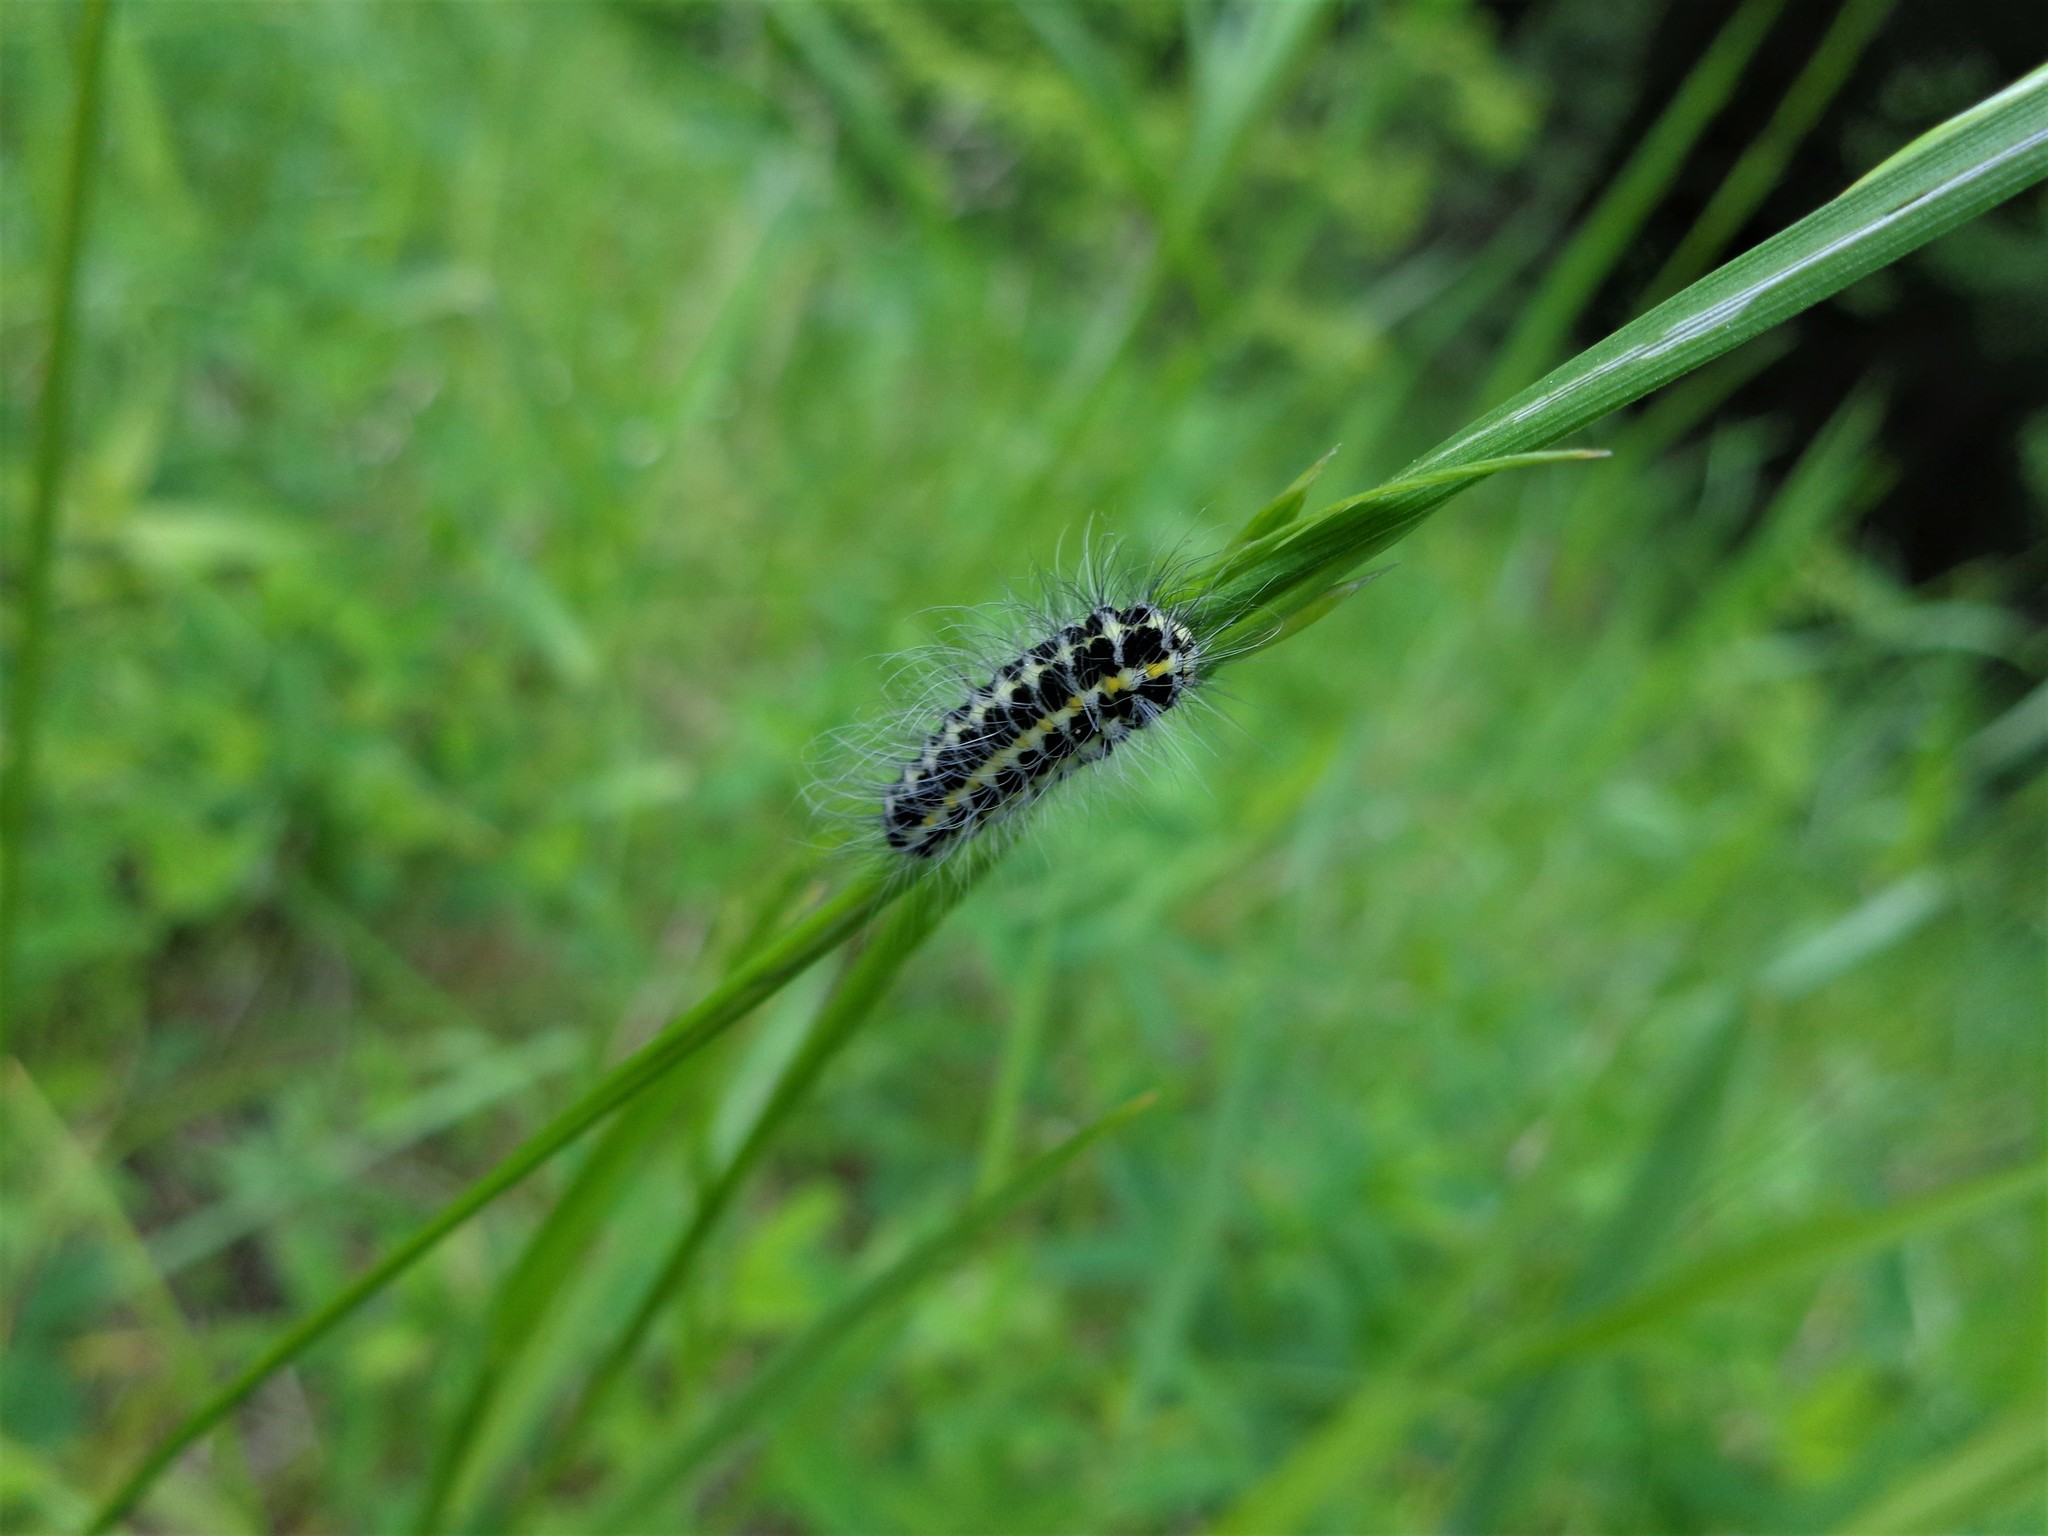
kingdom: Animalia
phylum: Arthropoda
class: Insecta
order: Lepidoptera
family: Zygaenidae
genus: Zygaena
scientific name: Zygaena lonicerae
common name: Narrow-bordered five-spot burnet
